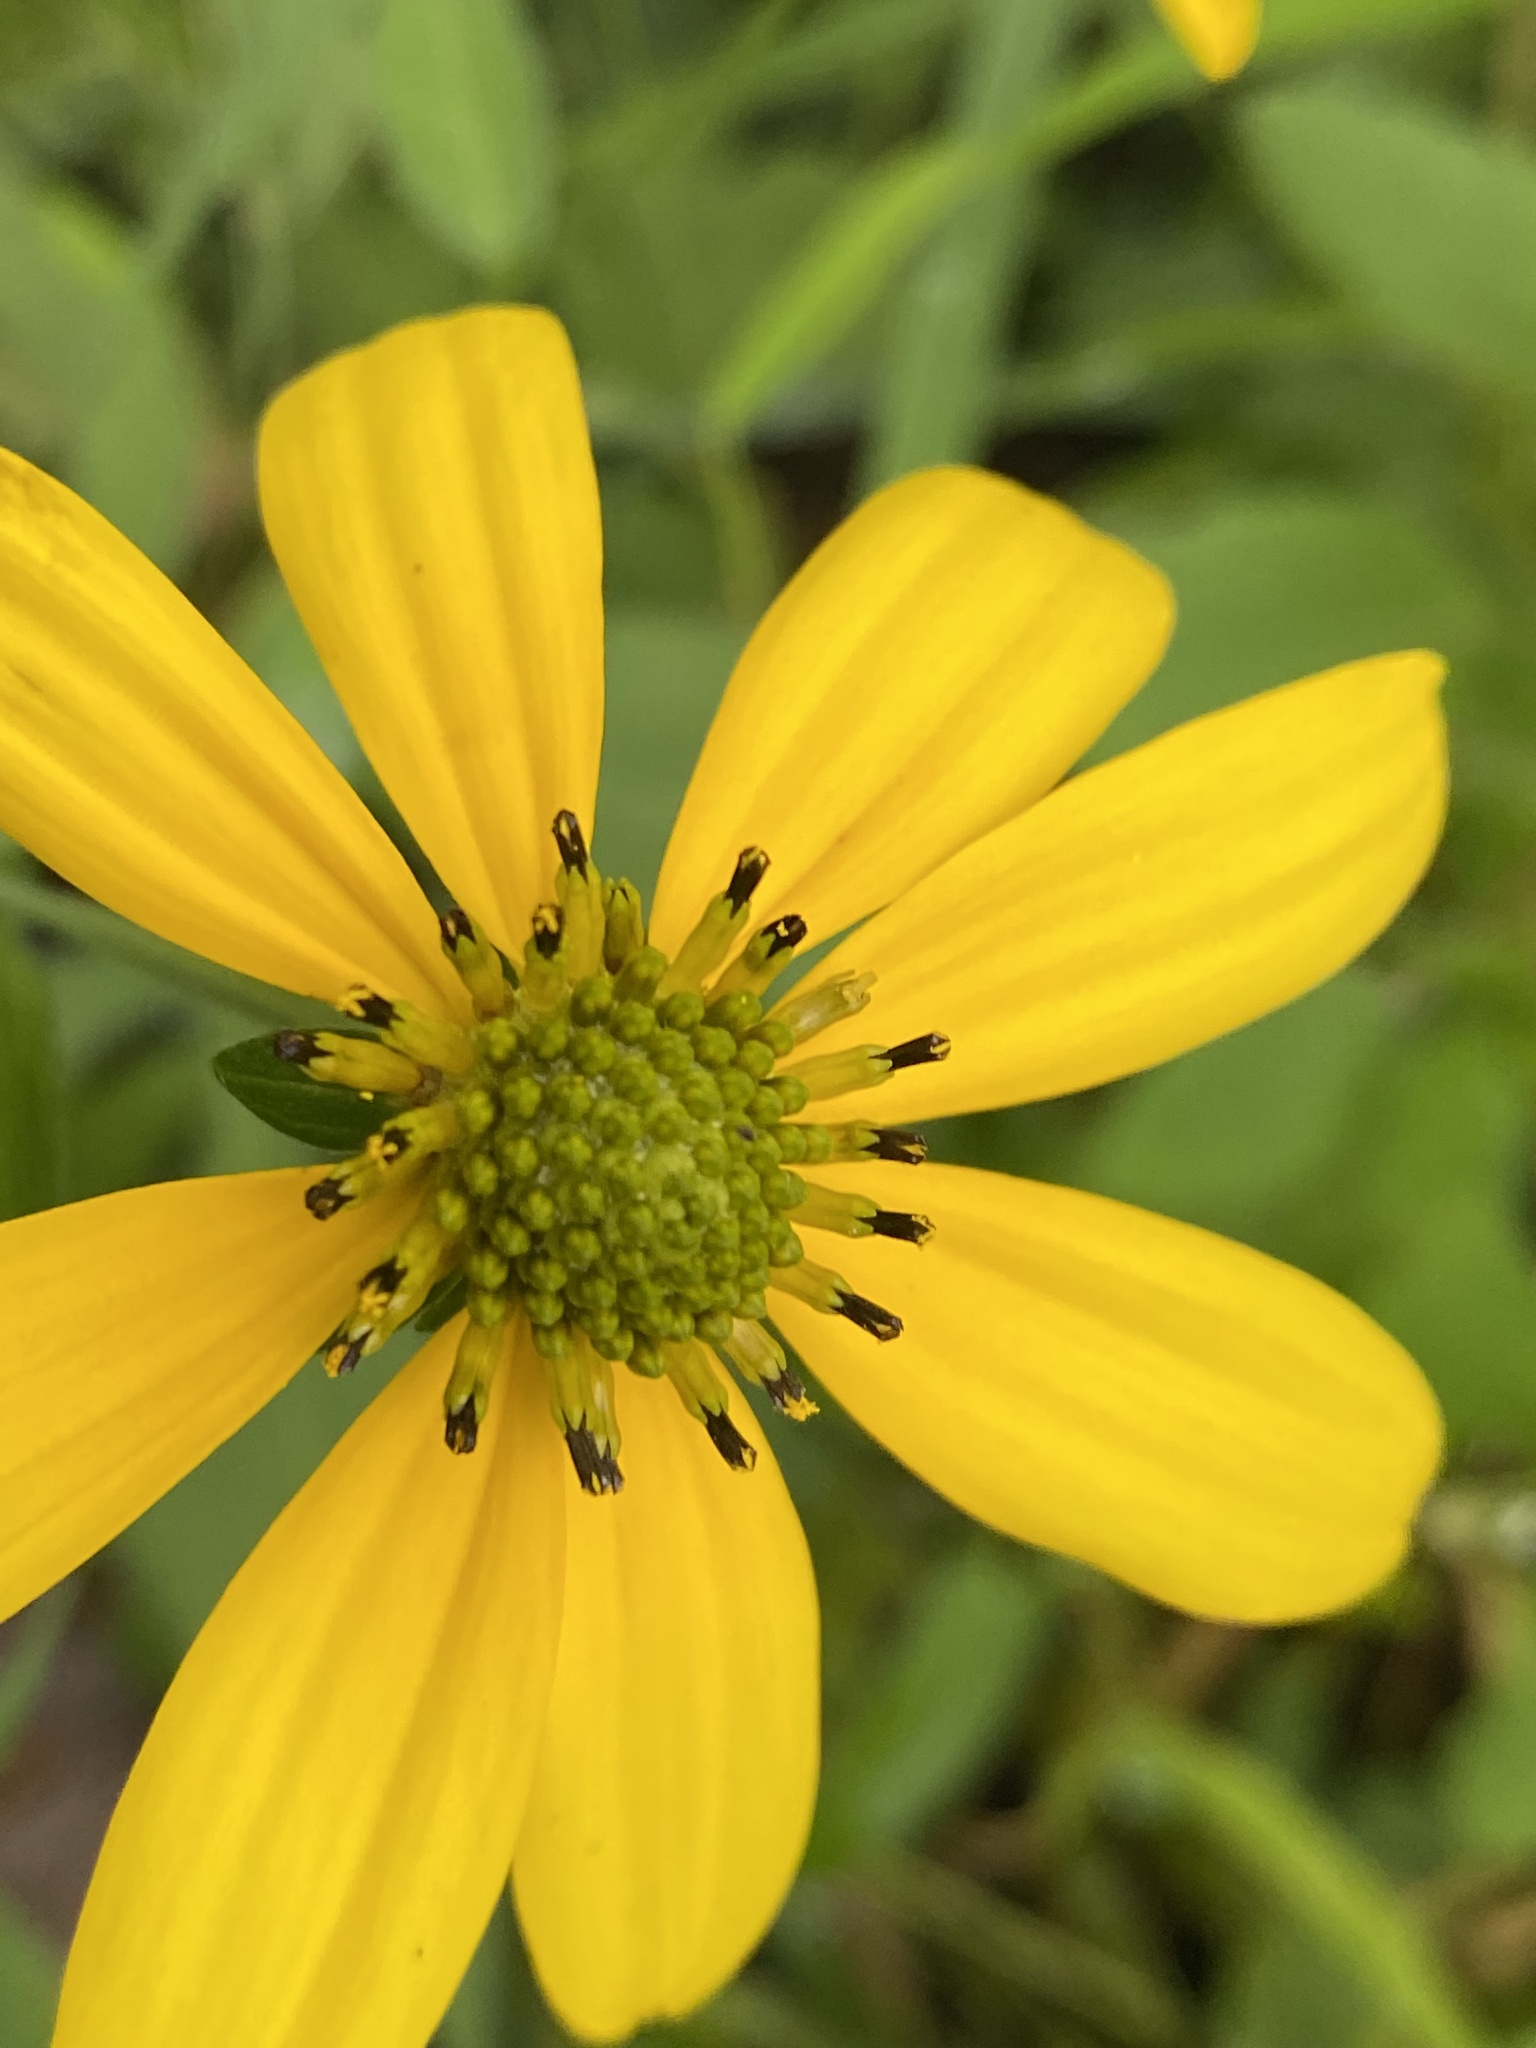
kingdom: Plantae
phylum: Tracheophyta
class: Magnoliopsida
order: Asterales
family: Asteraceae
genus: Rudbeckia
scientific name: Rudbeckia laciniata
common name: Coneflower
